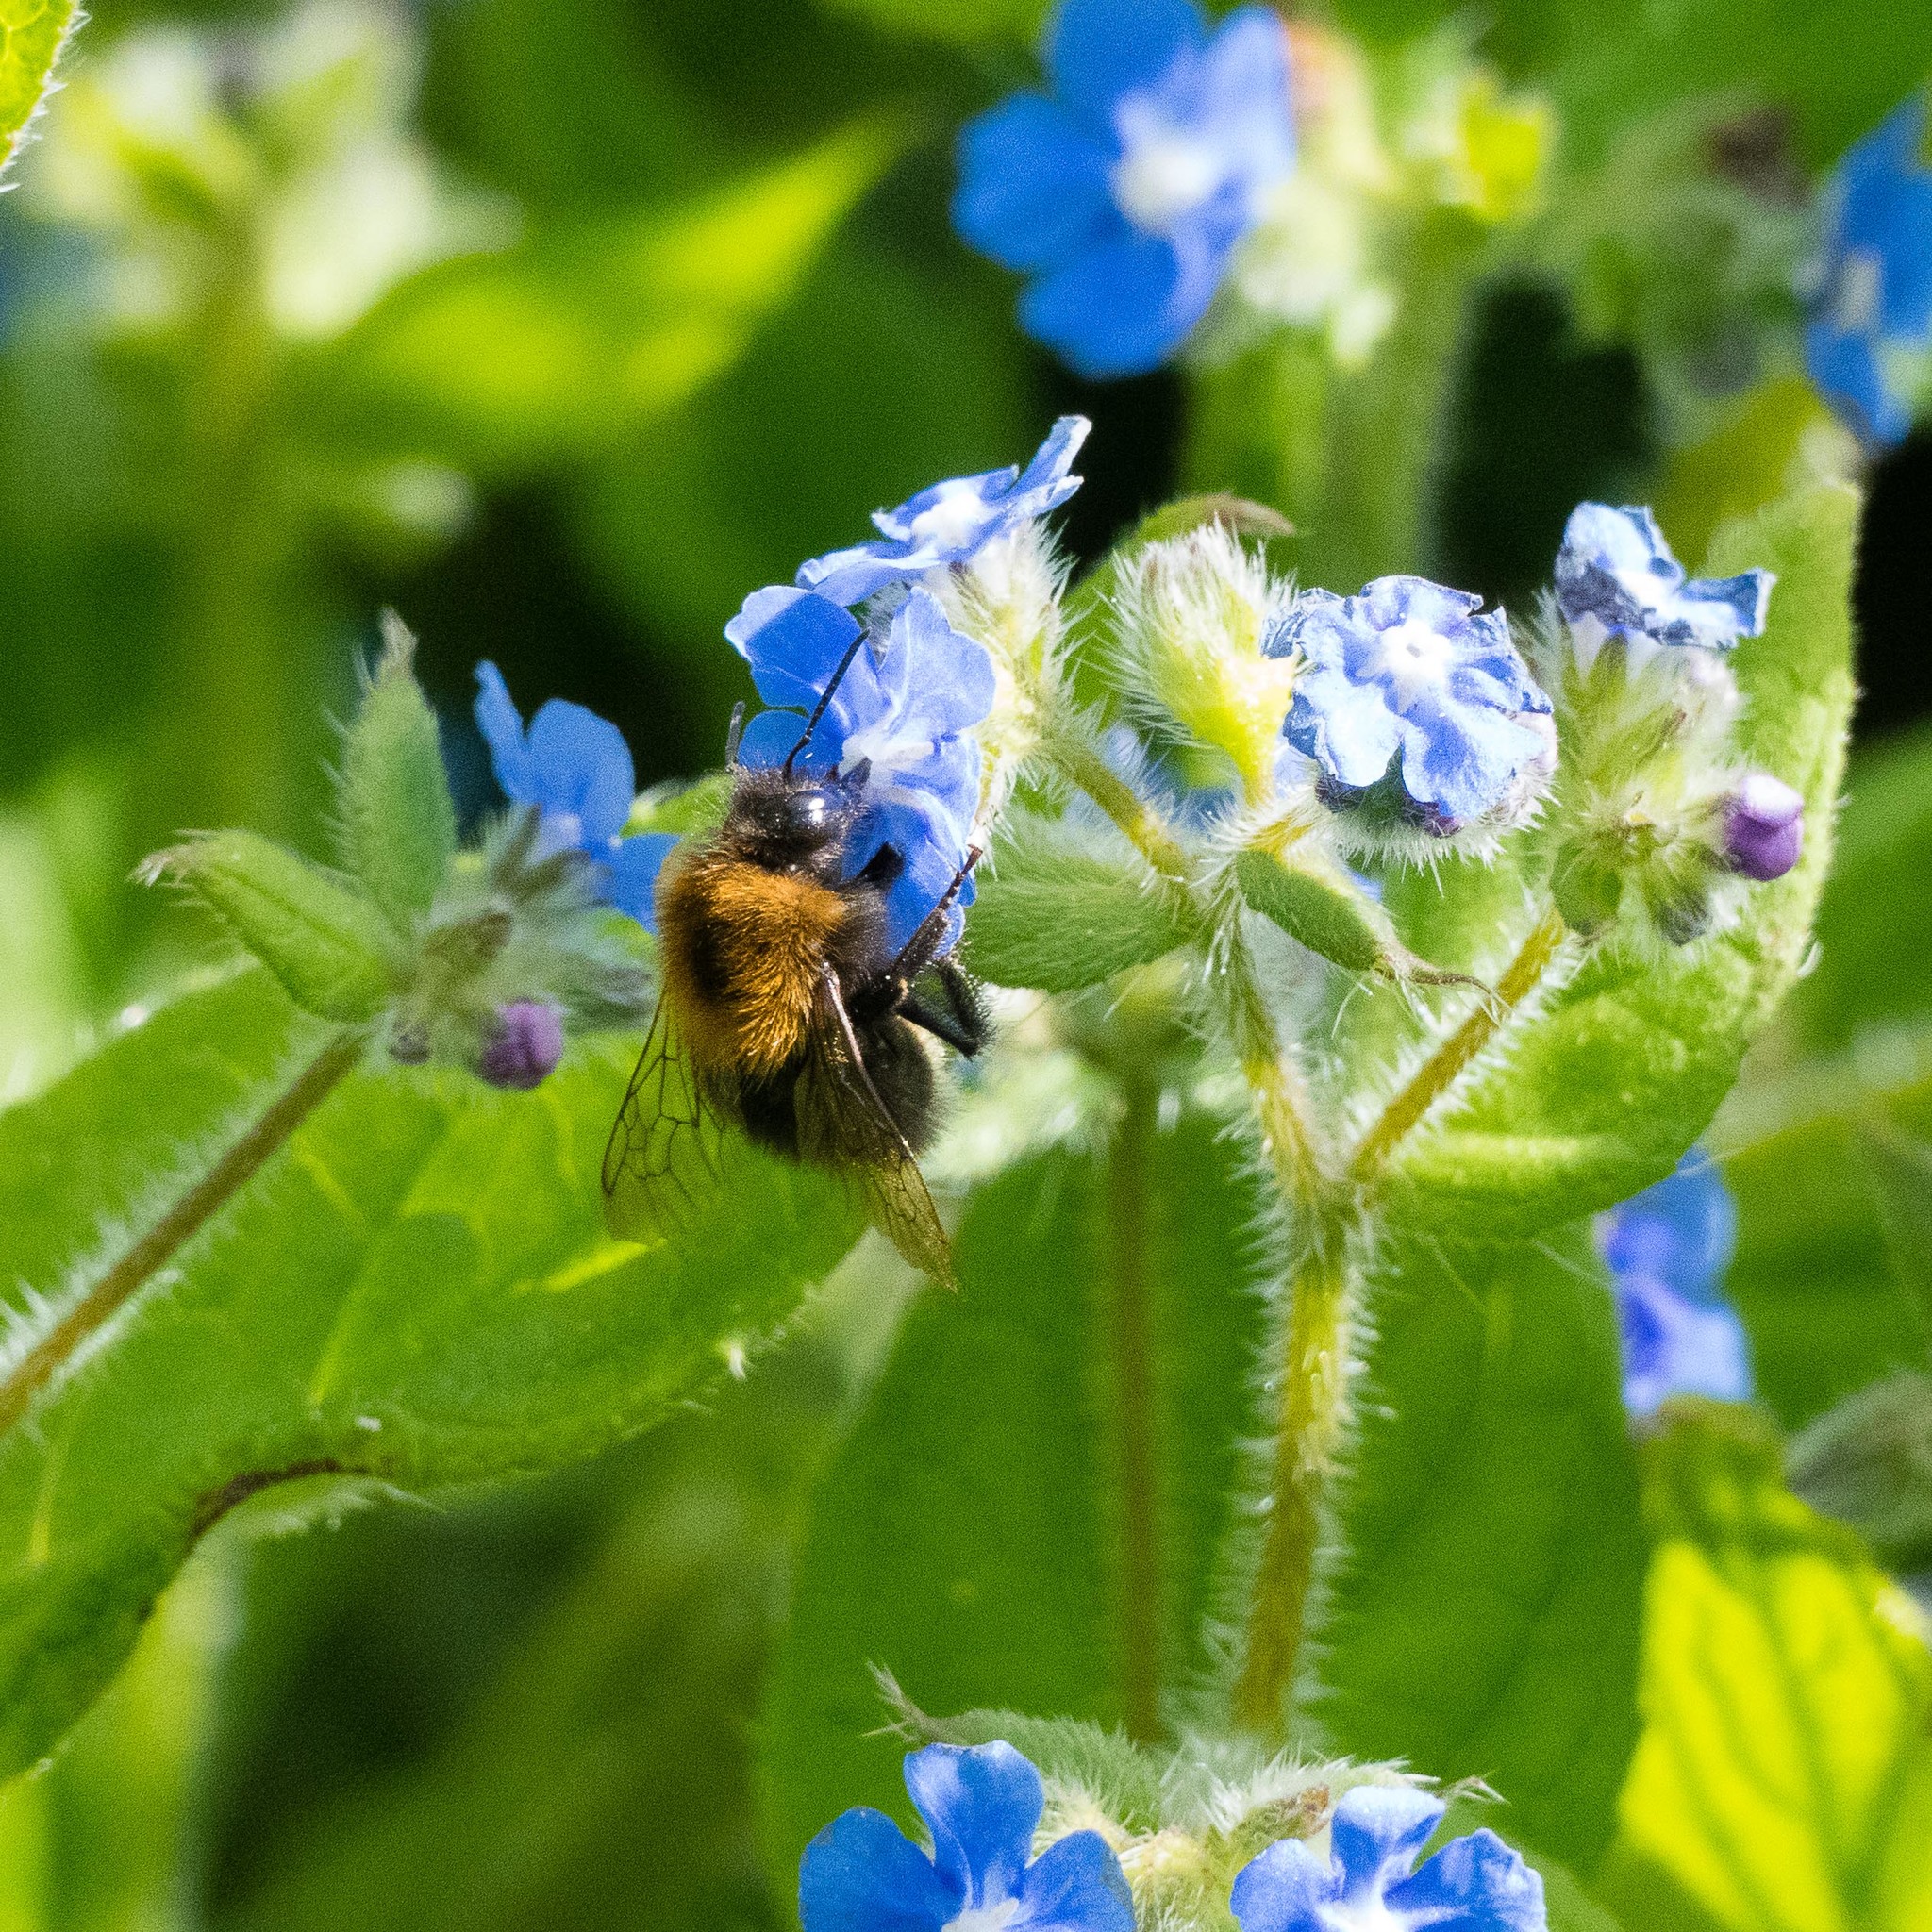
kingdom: Animalia
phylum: Arthropoda
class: Insecta
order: Hymenoptera
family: Apidae
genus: Bombus
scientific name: Bombus hypnorum
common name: New garden bumblebee
